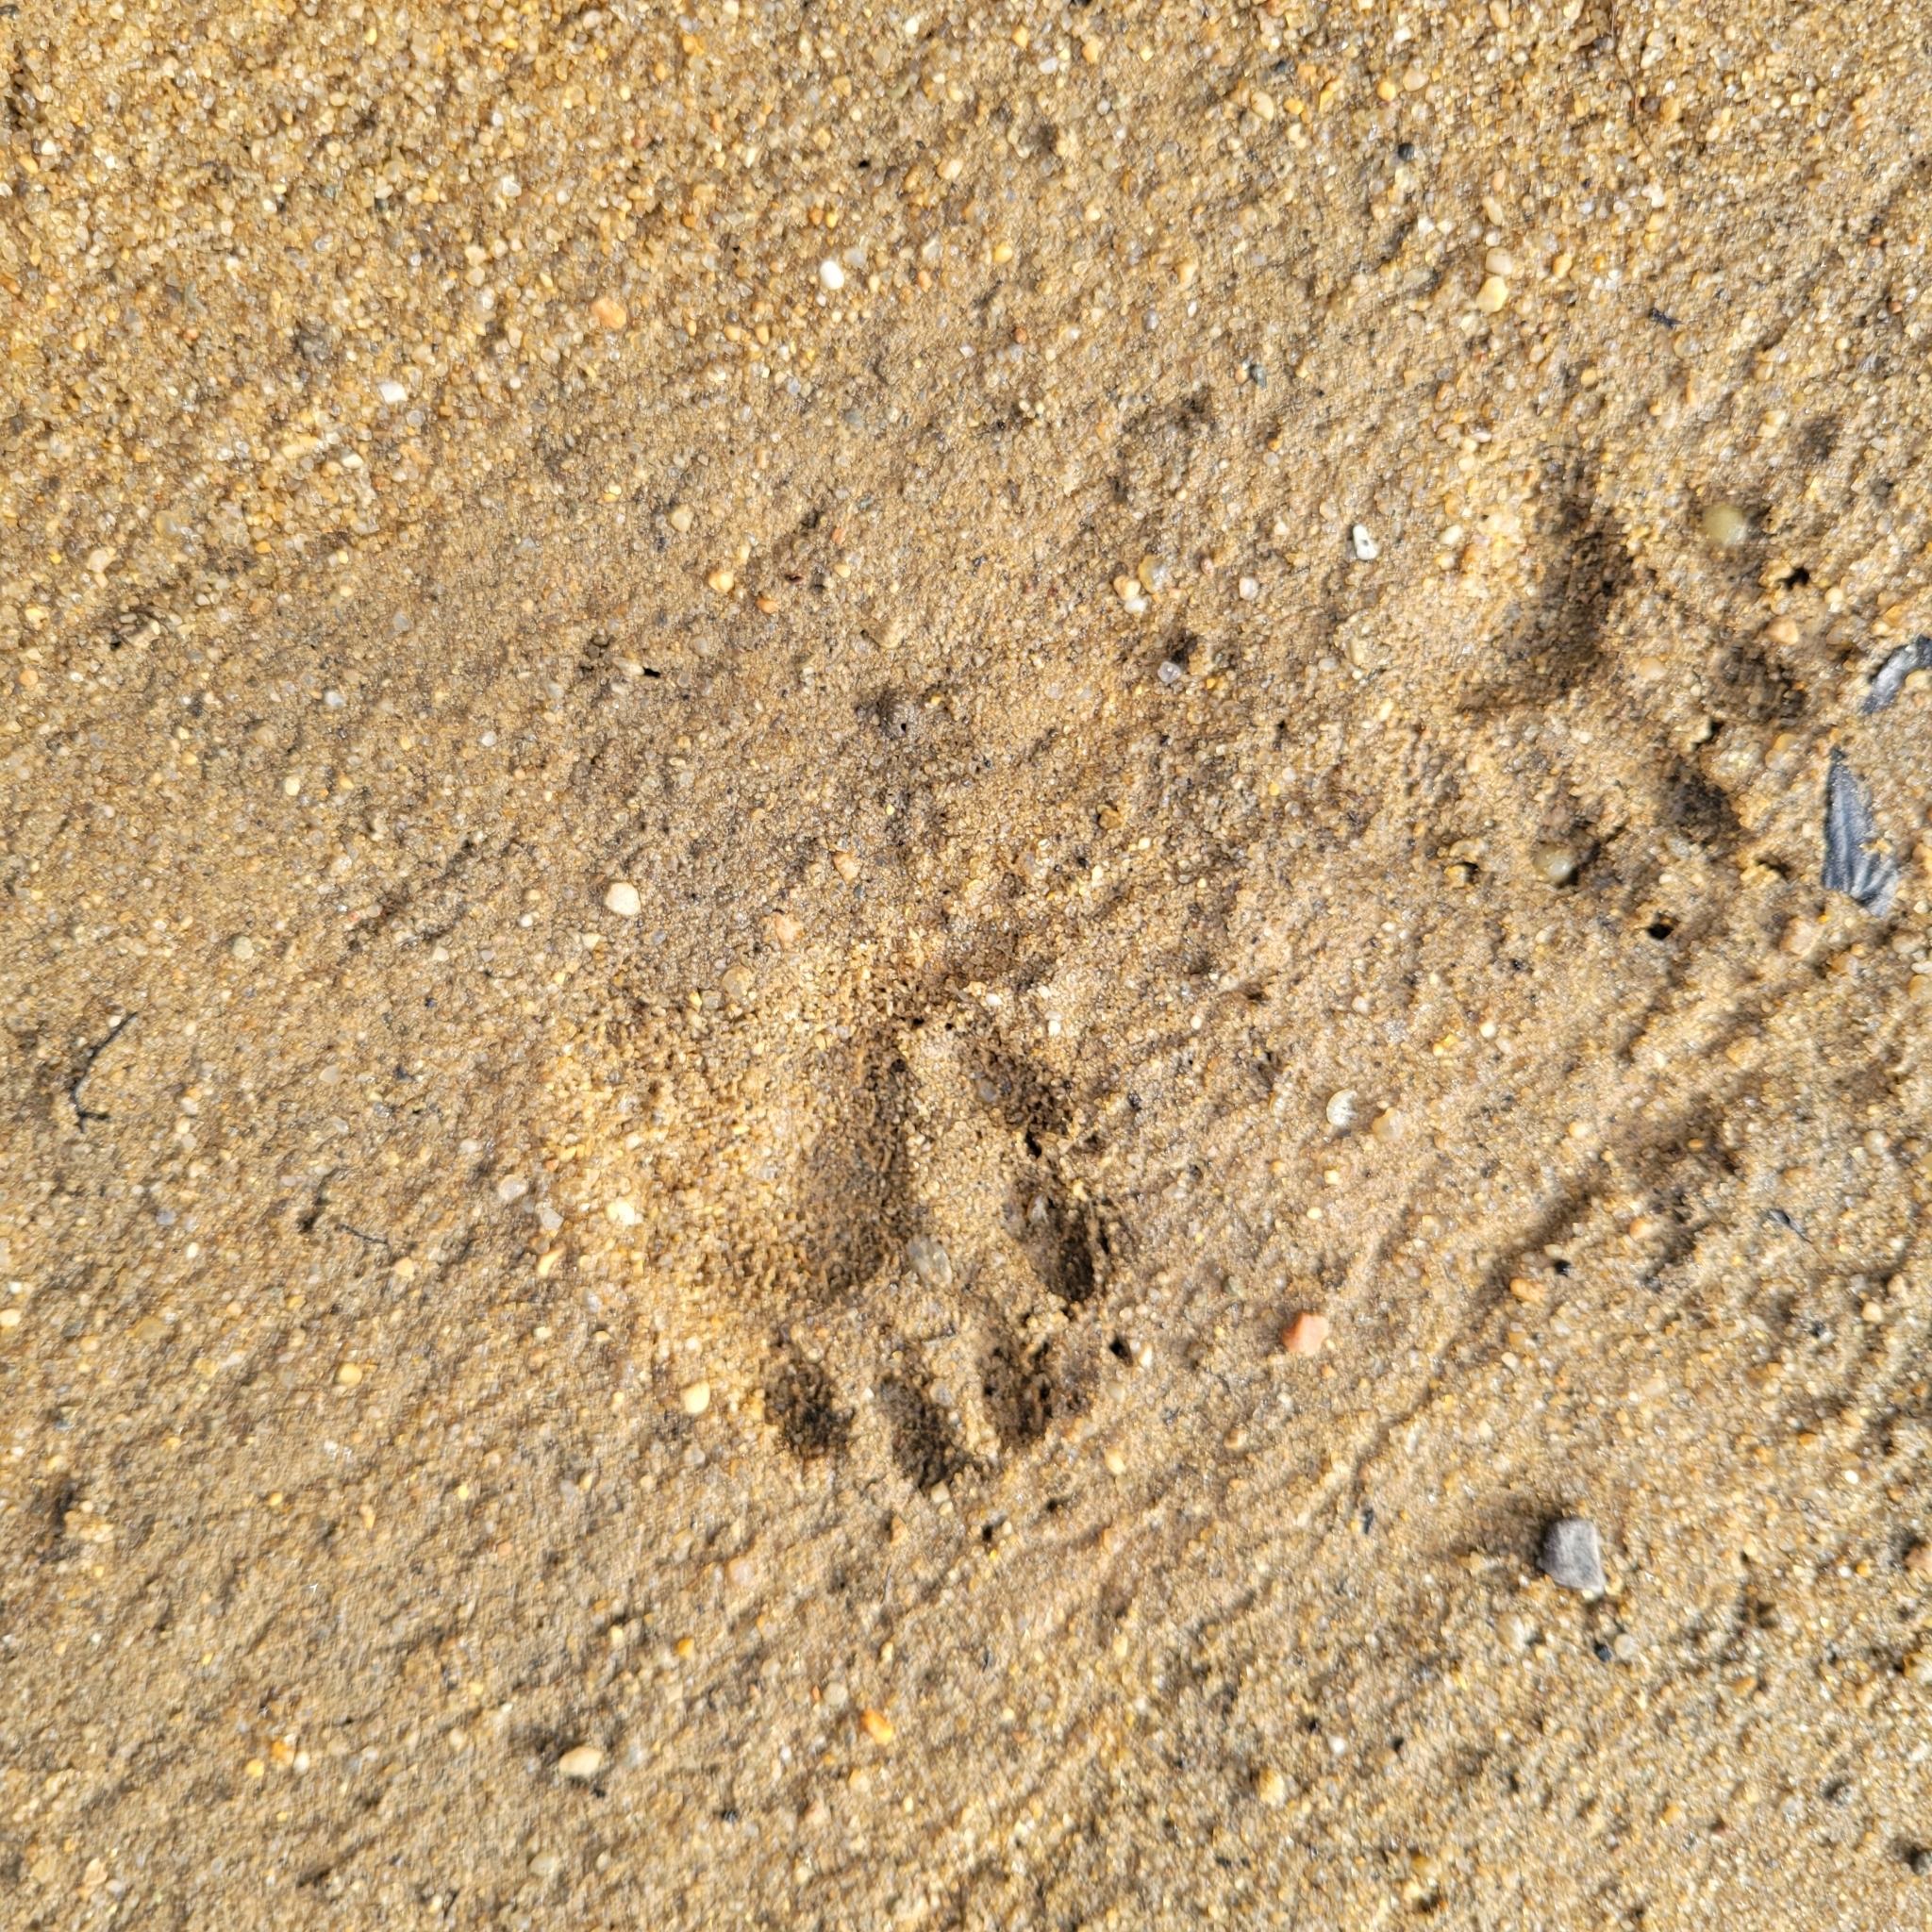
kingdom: Animalia
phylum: Chordata
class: Mammalia
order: Carnivora
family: Procyonidae
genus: Procyon
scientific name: Procyon lotor
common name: Raccoon
